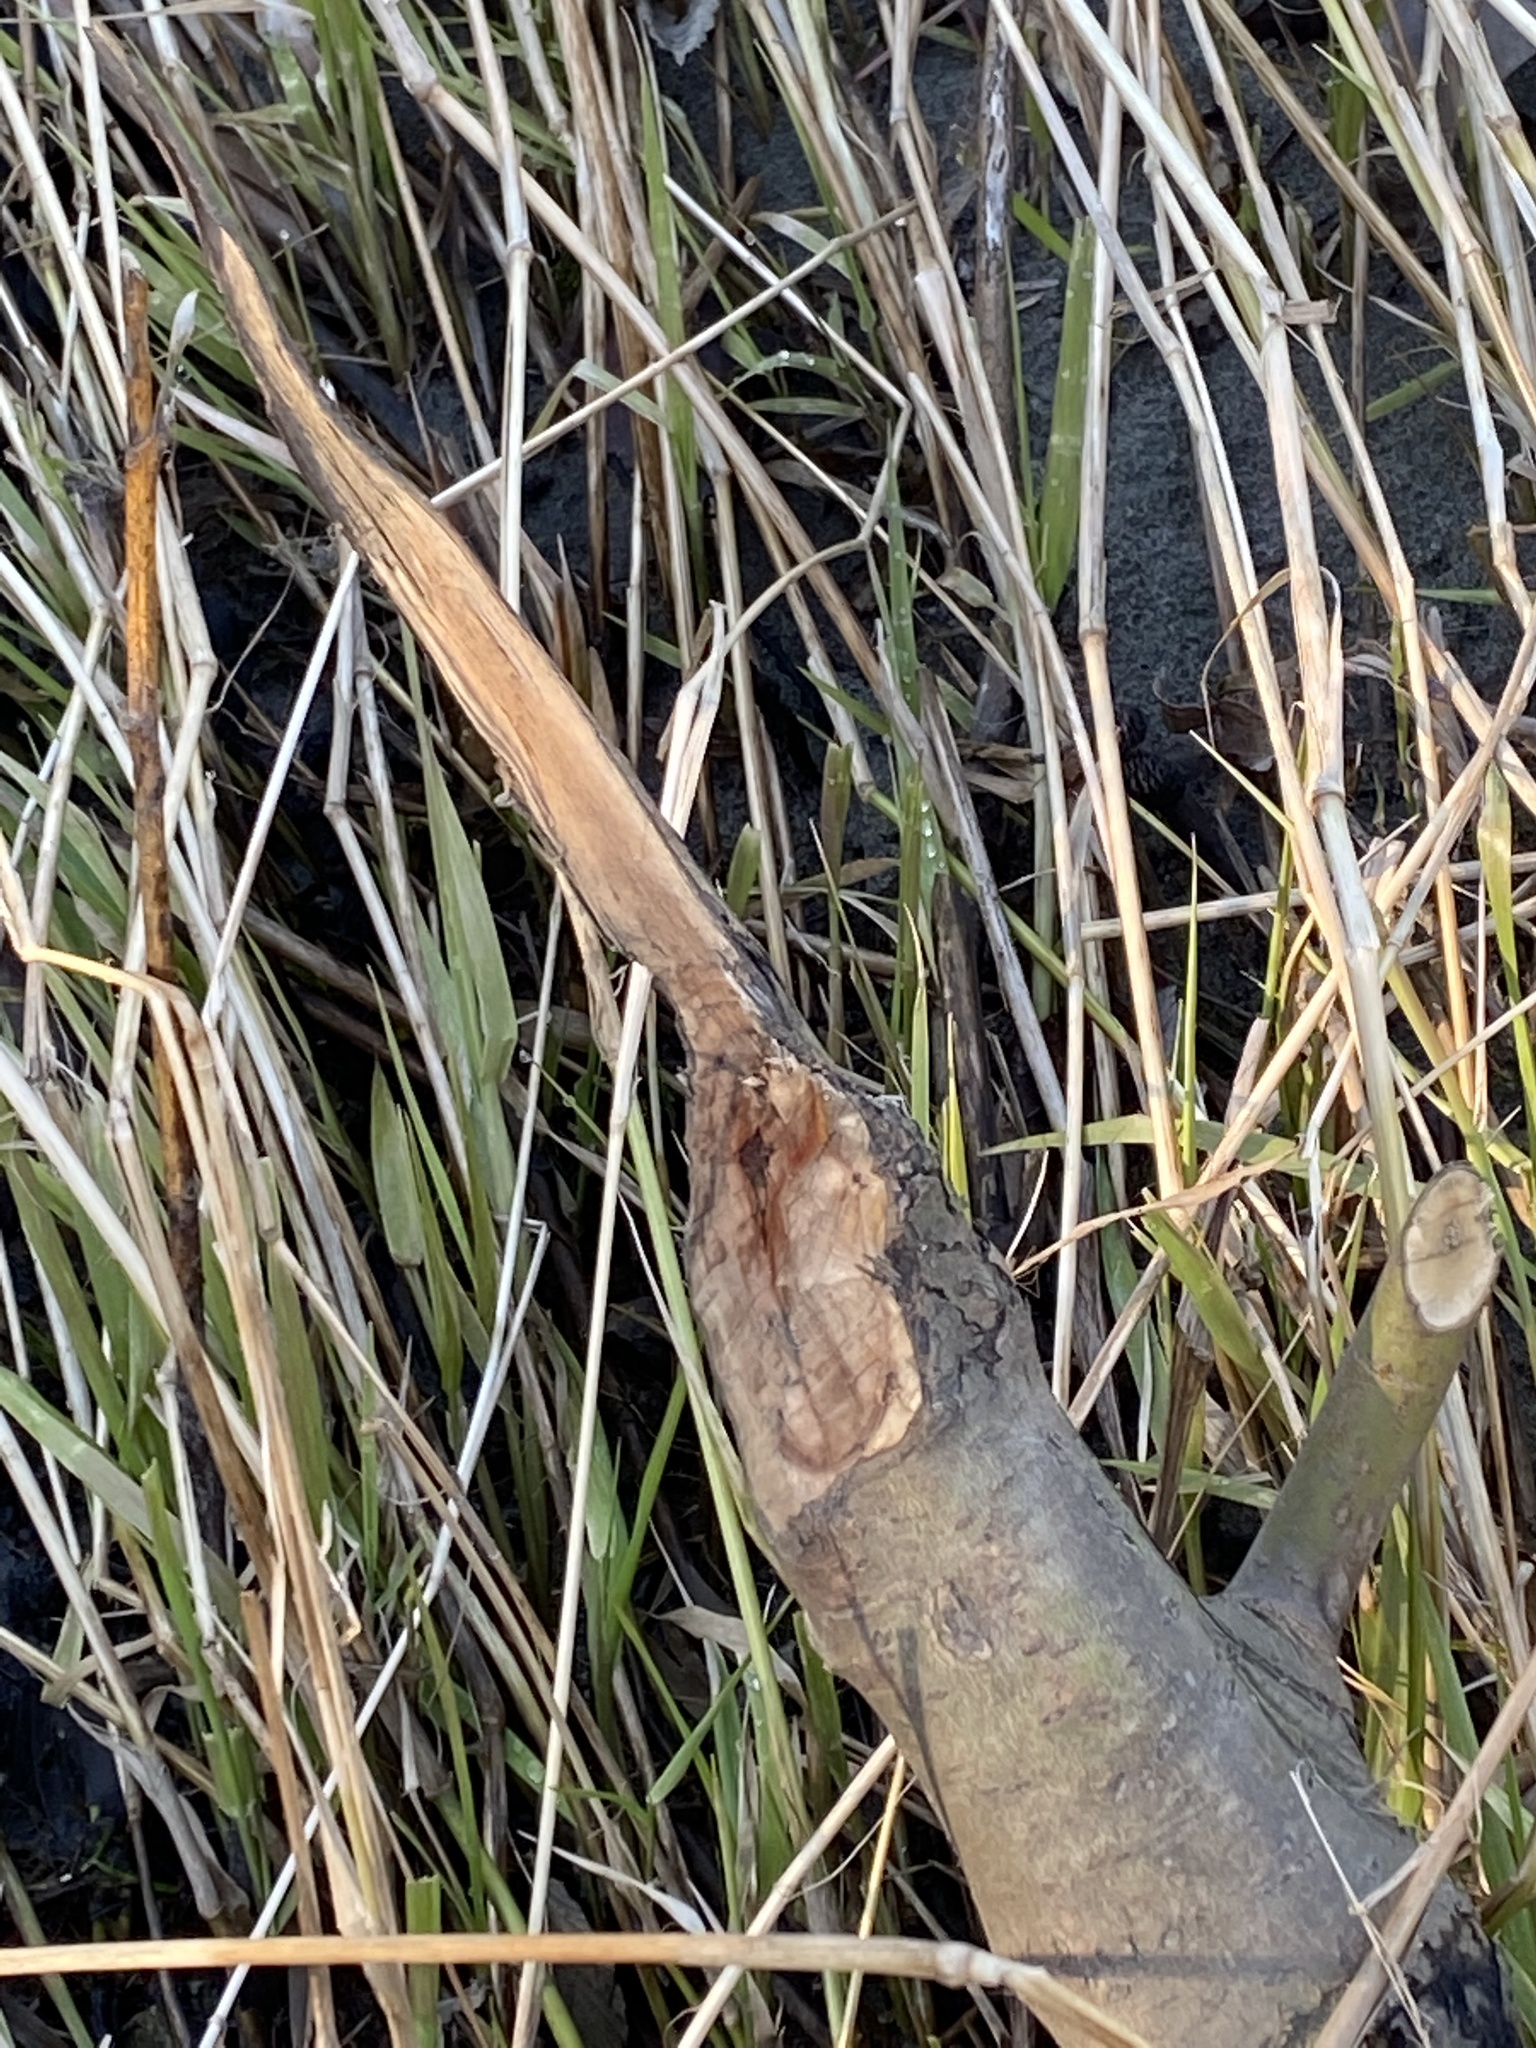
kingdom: Animalia
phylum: Chordata
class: Mammalia
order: Rodentia
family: Castoridae
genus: Castor
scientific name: Castor canadensis
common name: American beaver
